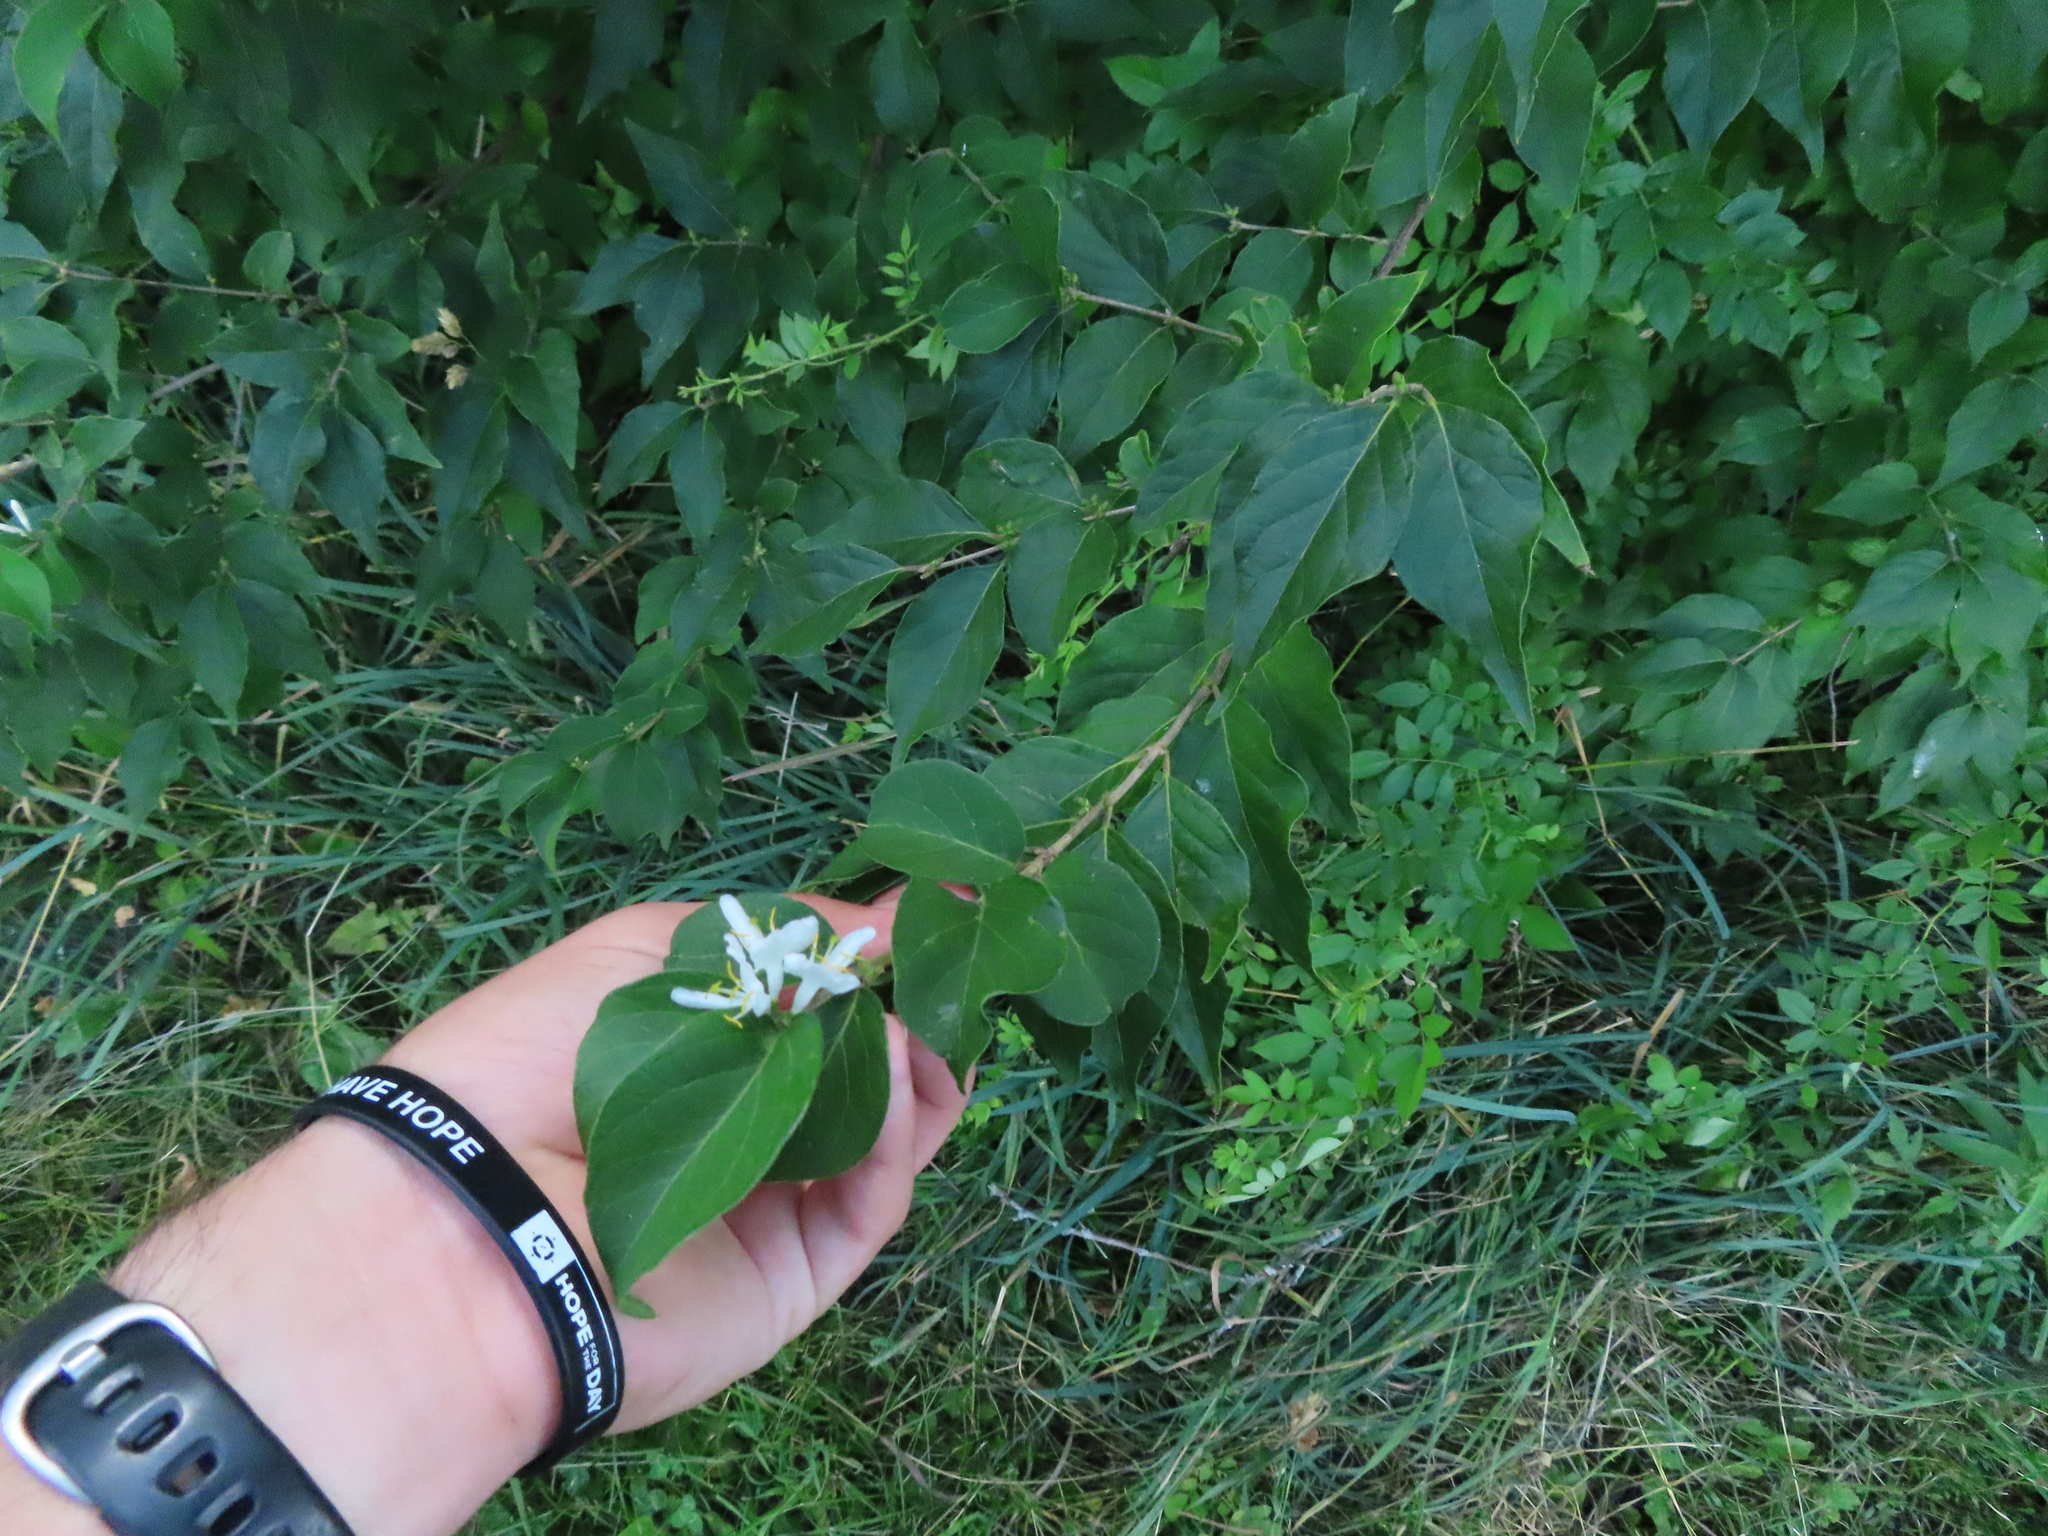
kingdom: Plantae
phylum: Tracheophyta
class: Magnoliopsida
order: Dipsacales
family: Caprifoliaceae
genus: Lonicera
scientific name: Lonicera maackii
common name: Amur honeysuckle
